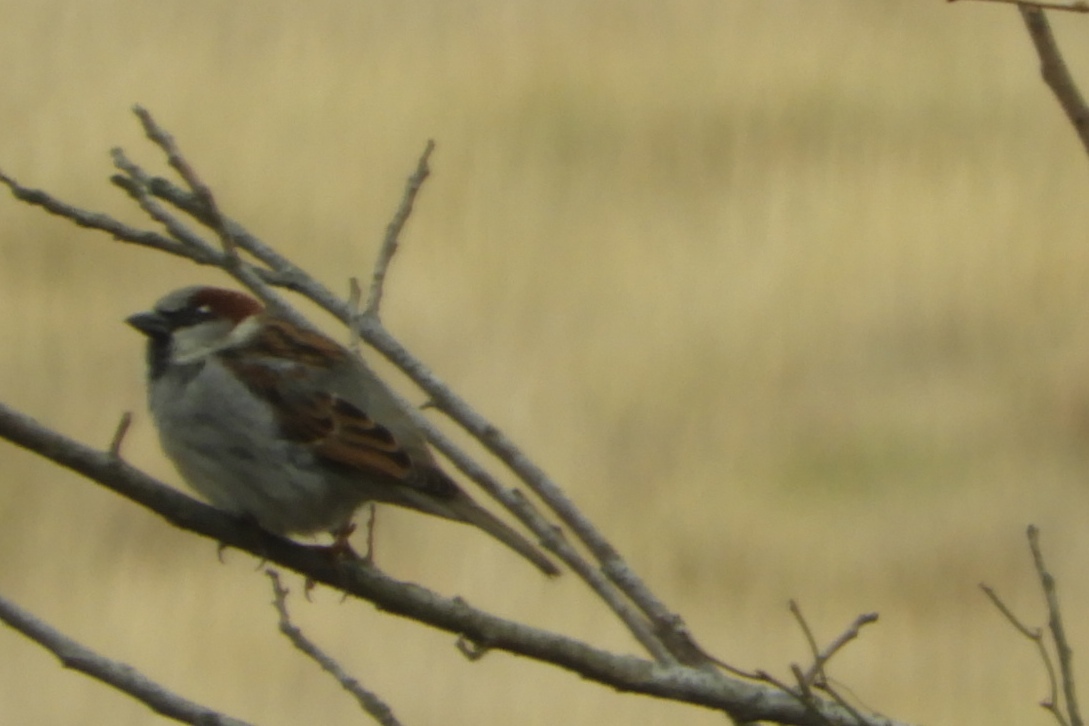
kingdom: Animalia
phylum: Chordata
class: Aves
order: Passeriformes
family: Passeridae
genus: Passer
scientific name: Passer domesticus
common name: House sparrow
